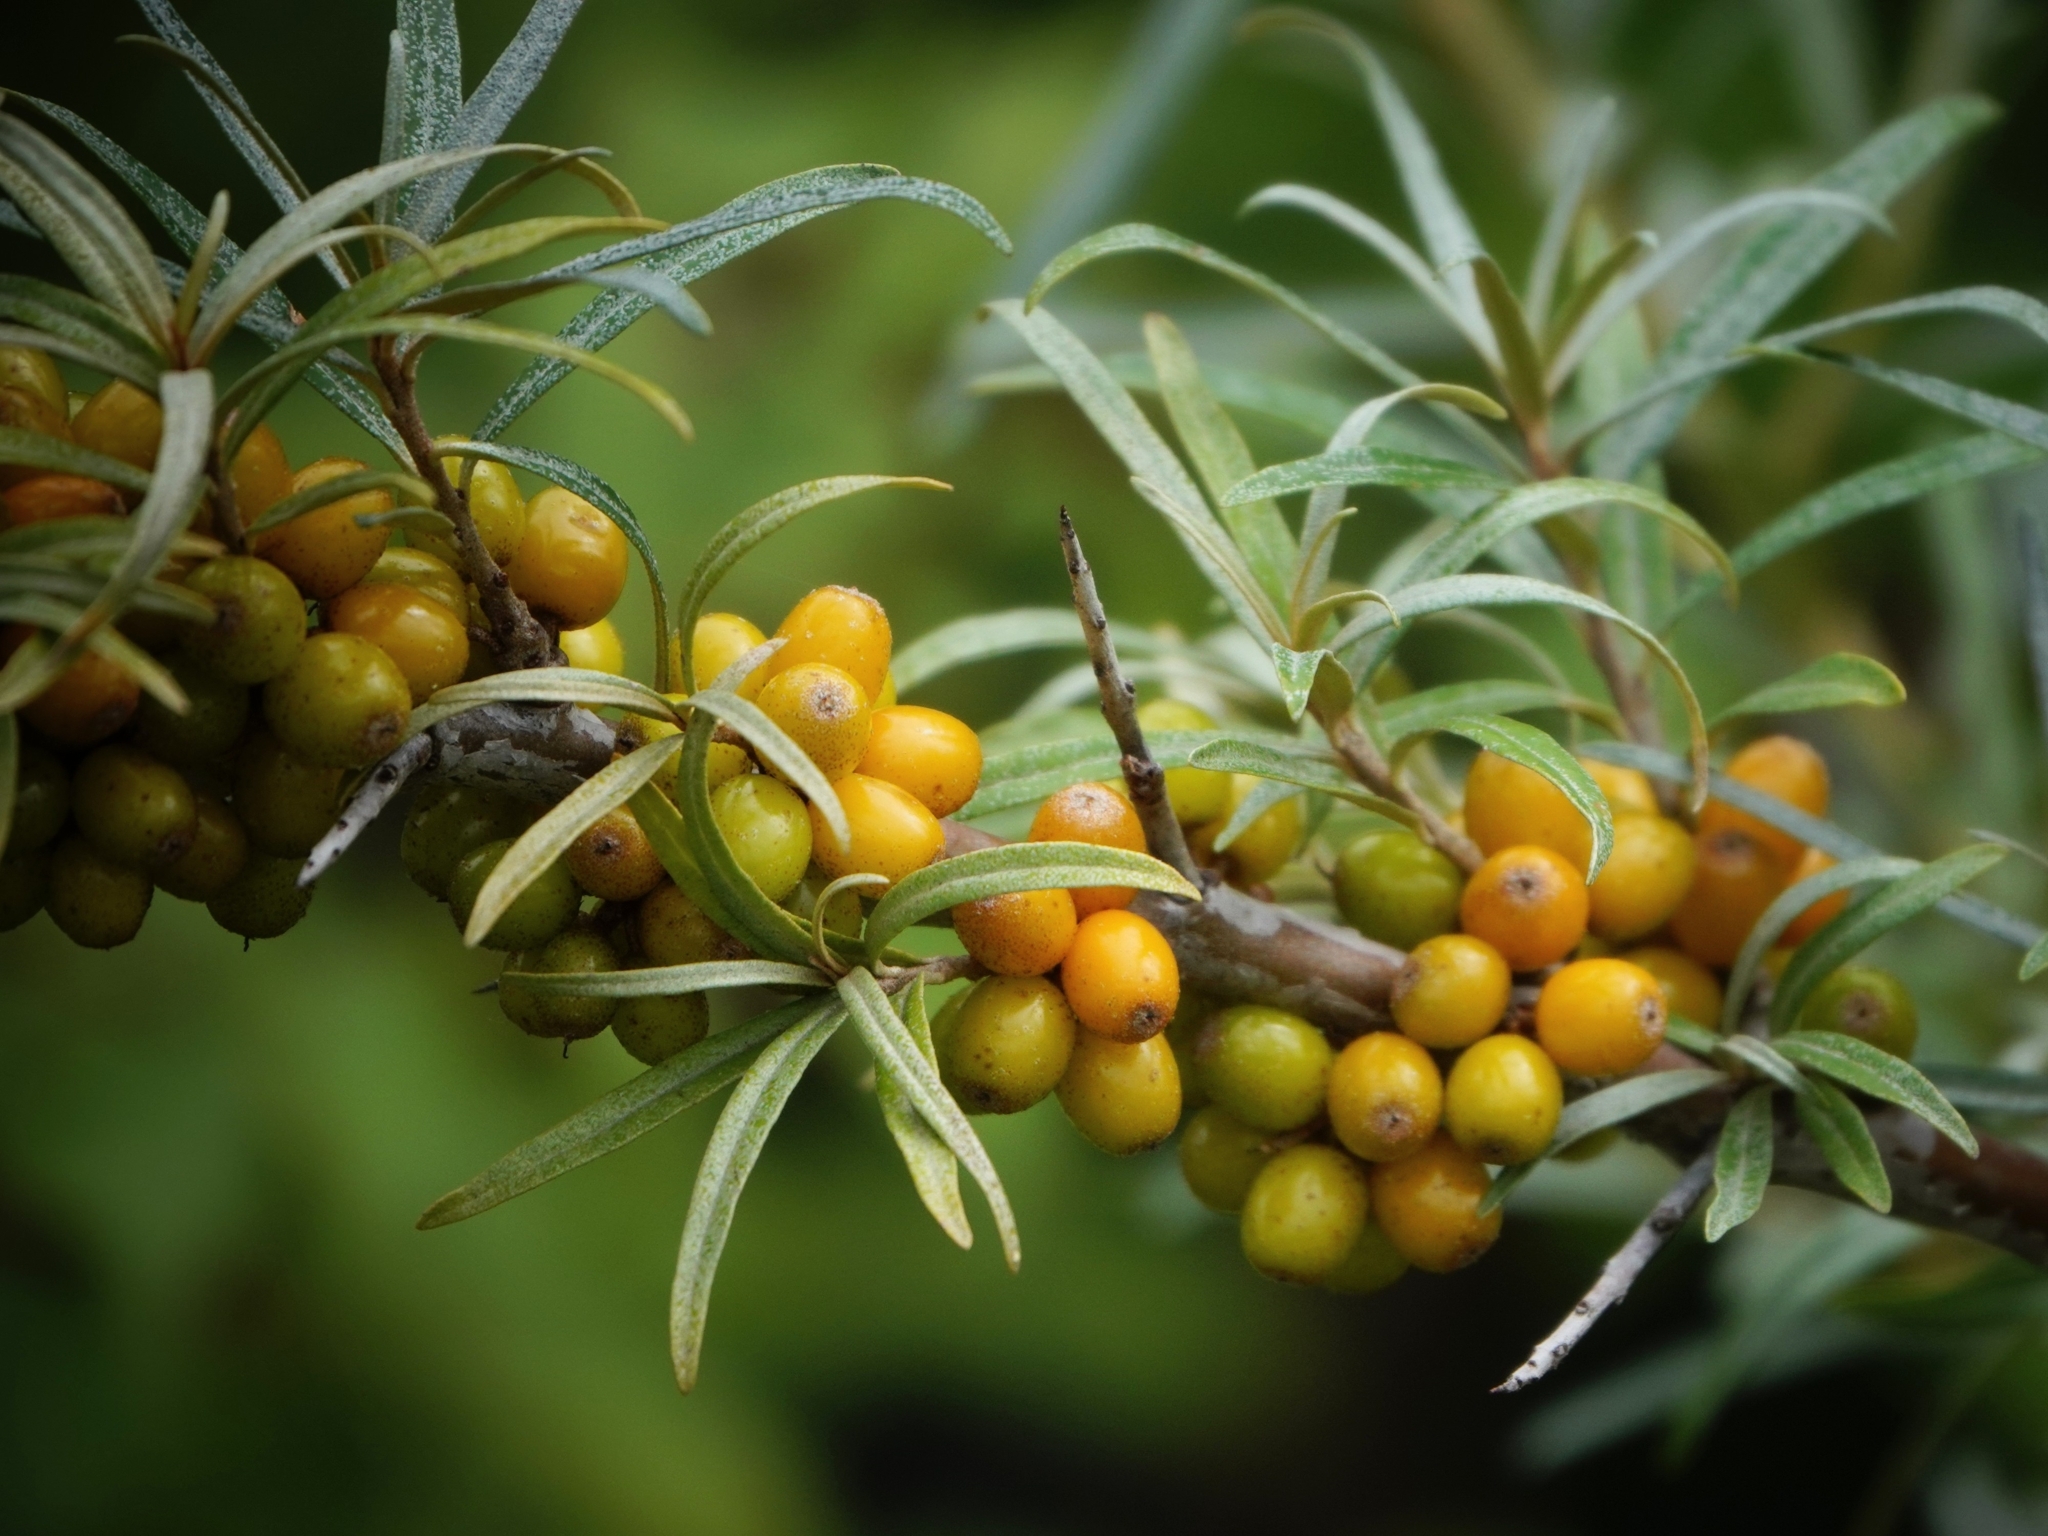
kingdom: Plantae
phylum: Tracheophyta
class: Magnoliopsida
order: Rosales
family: Elaeagnaceae
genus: Hippophae
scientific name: Hippophae rhamnoides
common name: Sea-buckthorn
